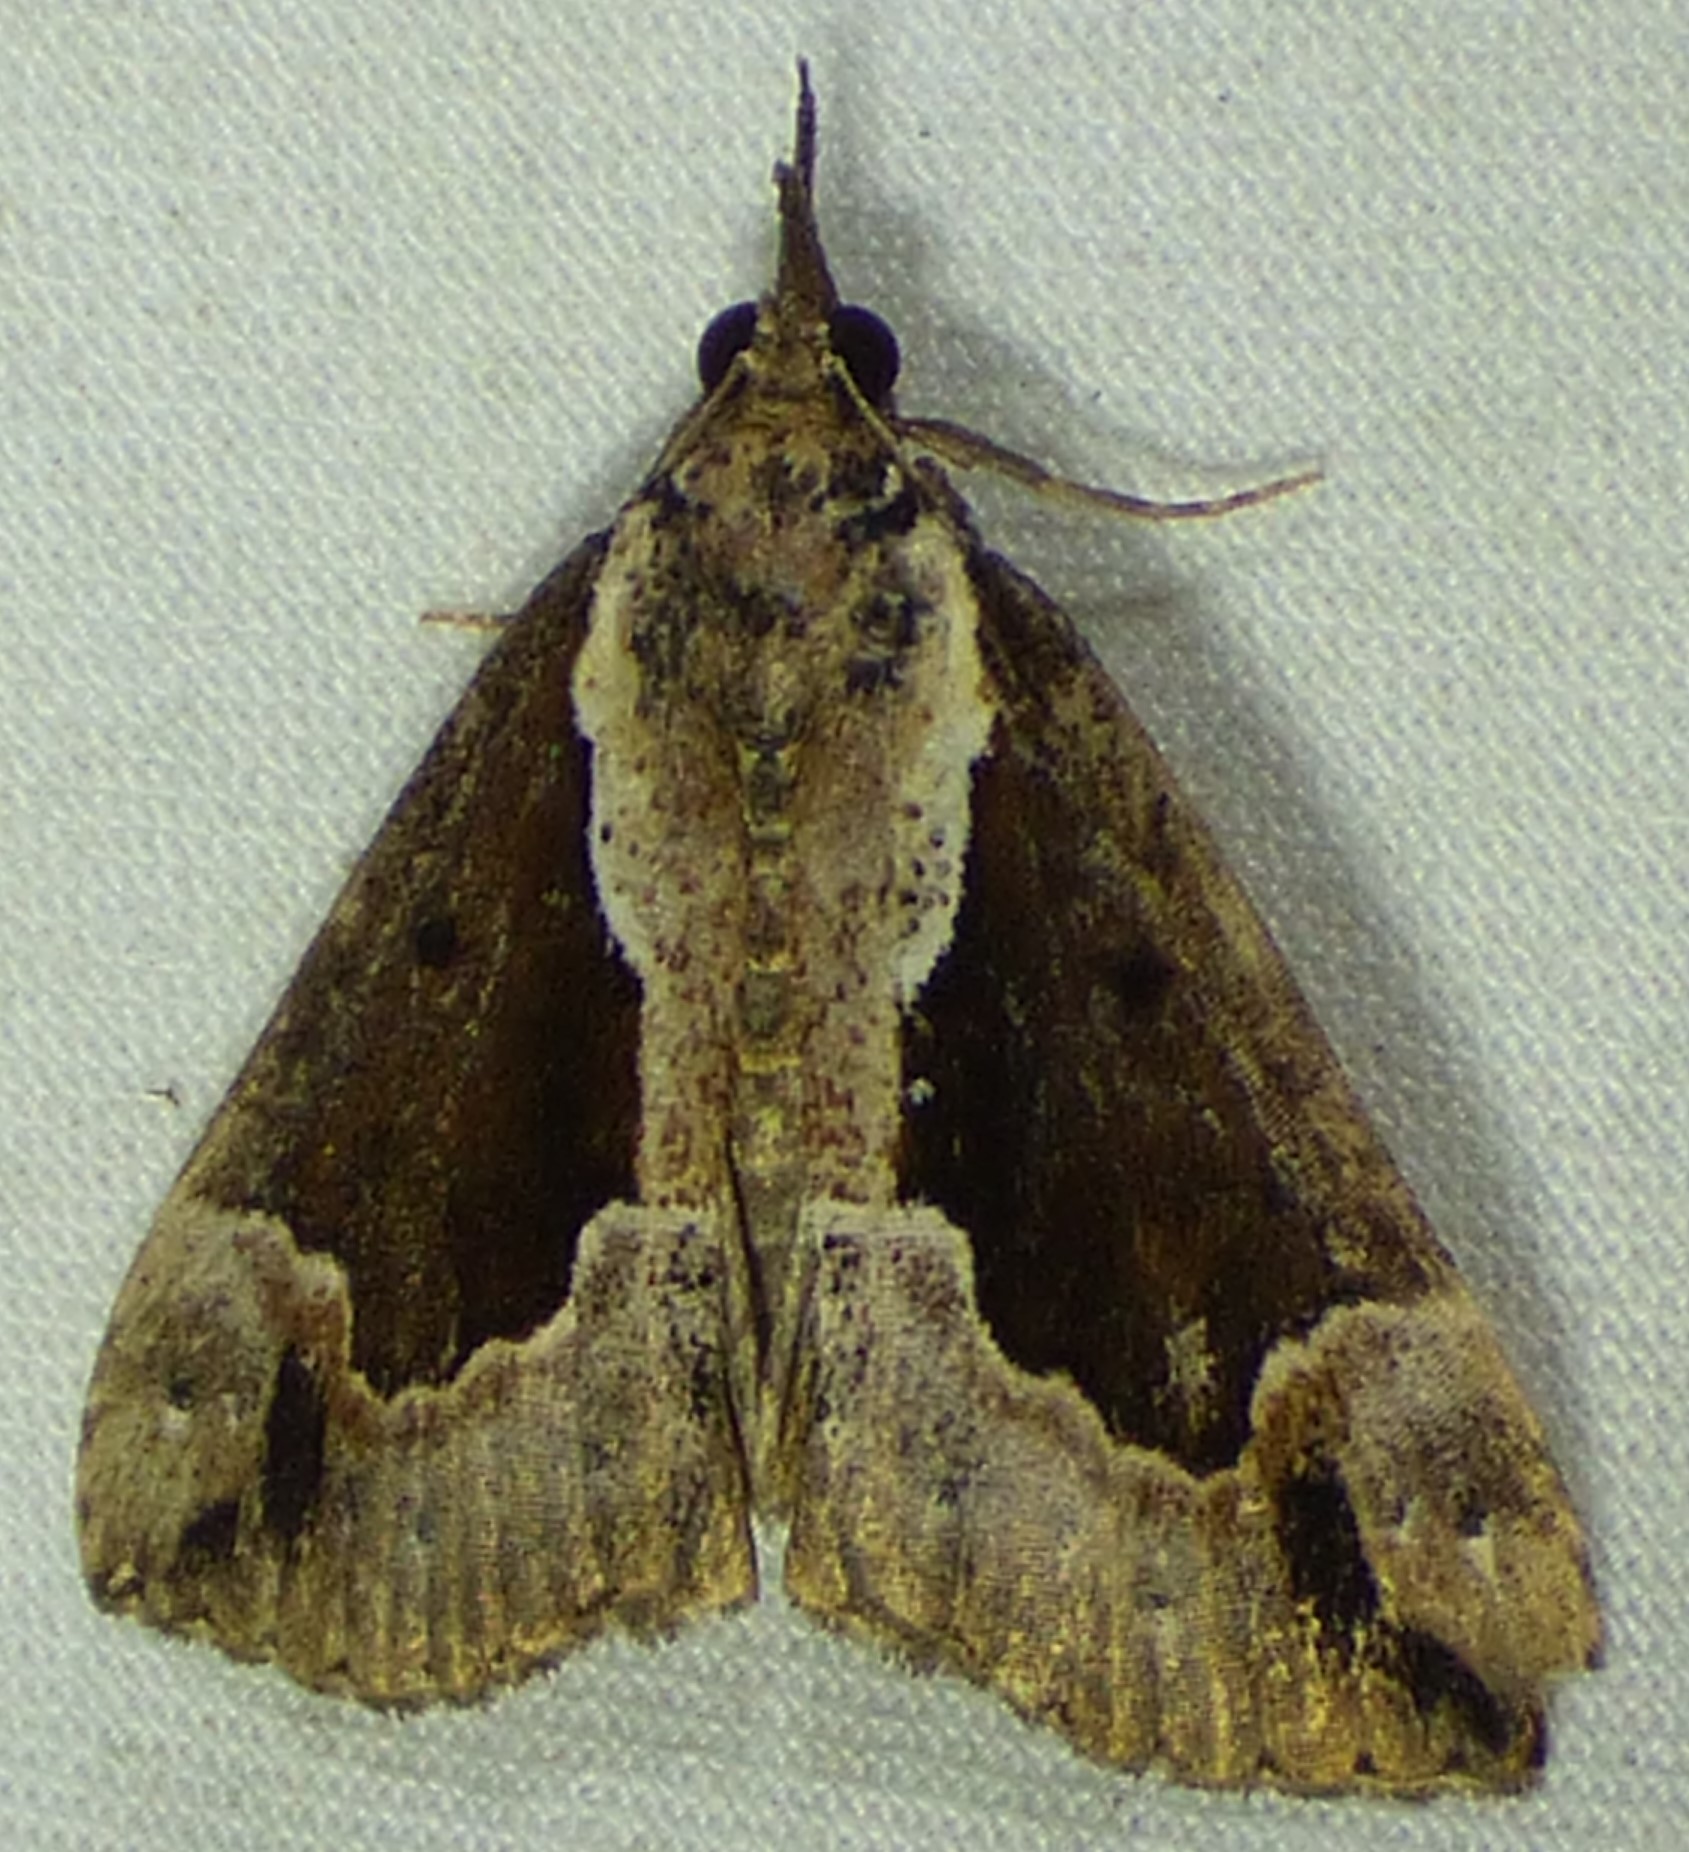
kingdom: Animalia
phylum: Arthropoda
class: Insecta
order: Lepidoptera
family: Erebidae
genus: Hypena
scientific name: Hypena baltimoralis
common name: Baltimore snout
